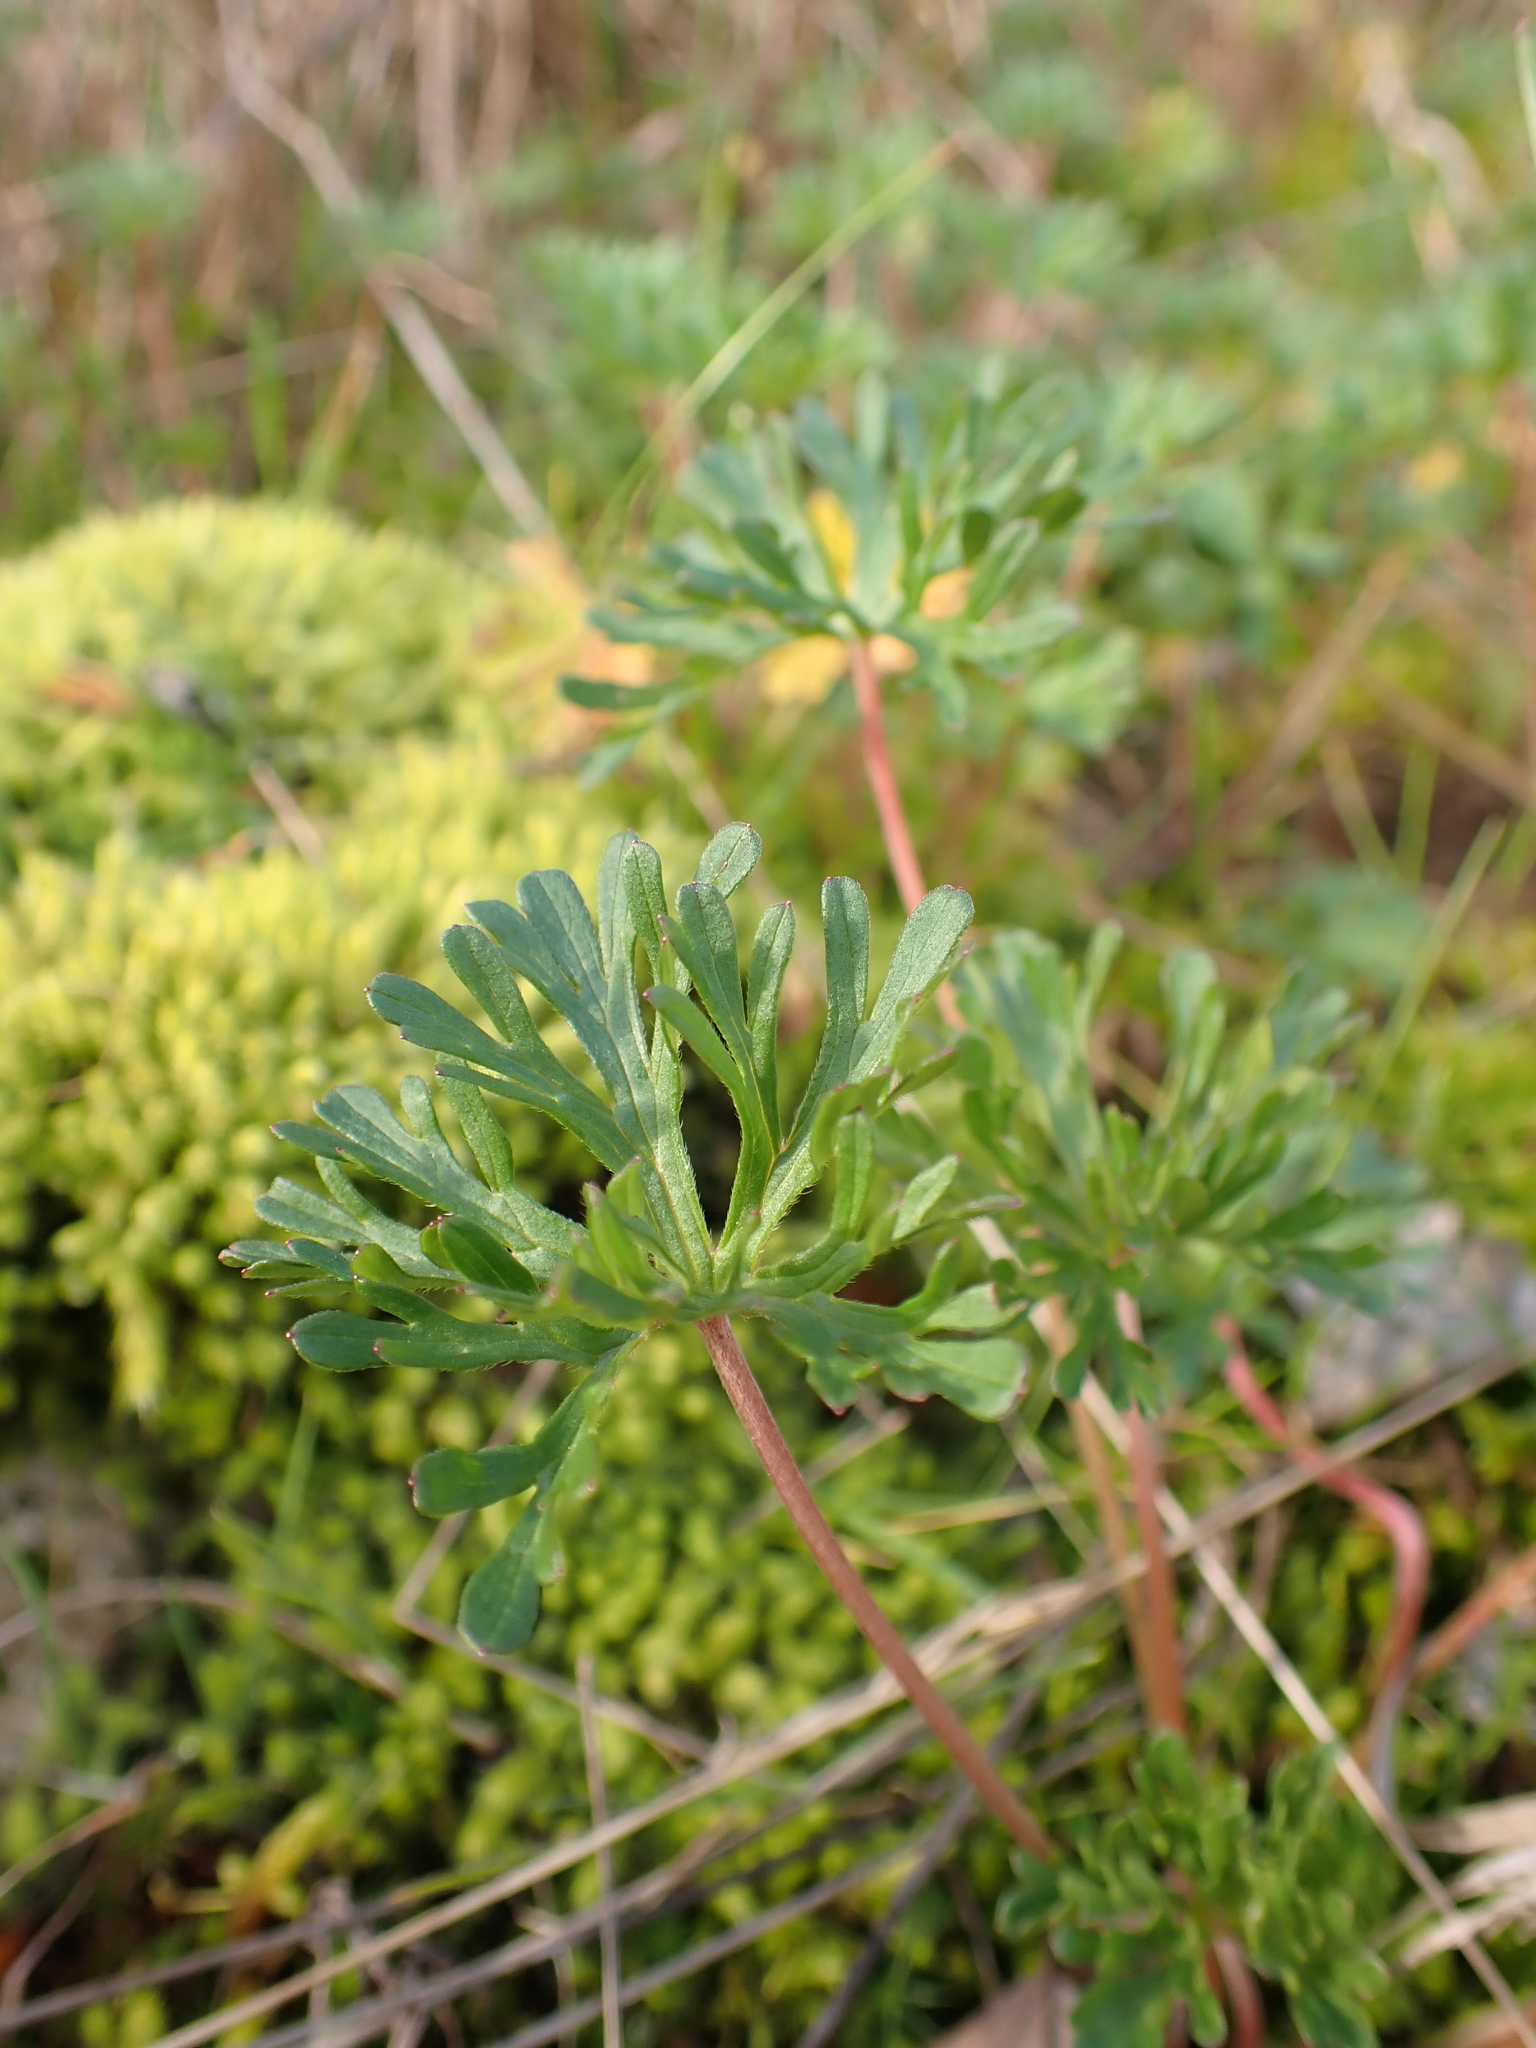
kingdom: Plantae
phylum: Tracheophyta
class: Magnoliopsida
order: Geraniales
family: Geraniaceae
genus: Geranium
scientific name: Geranium retrorsum
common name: New zealand geranium
